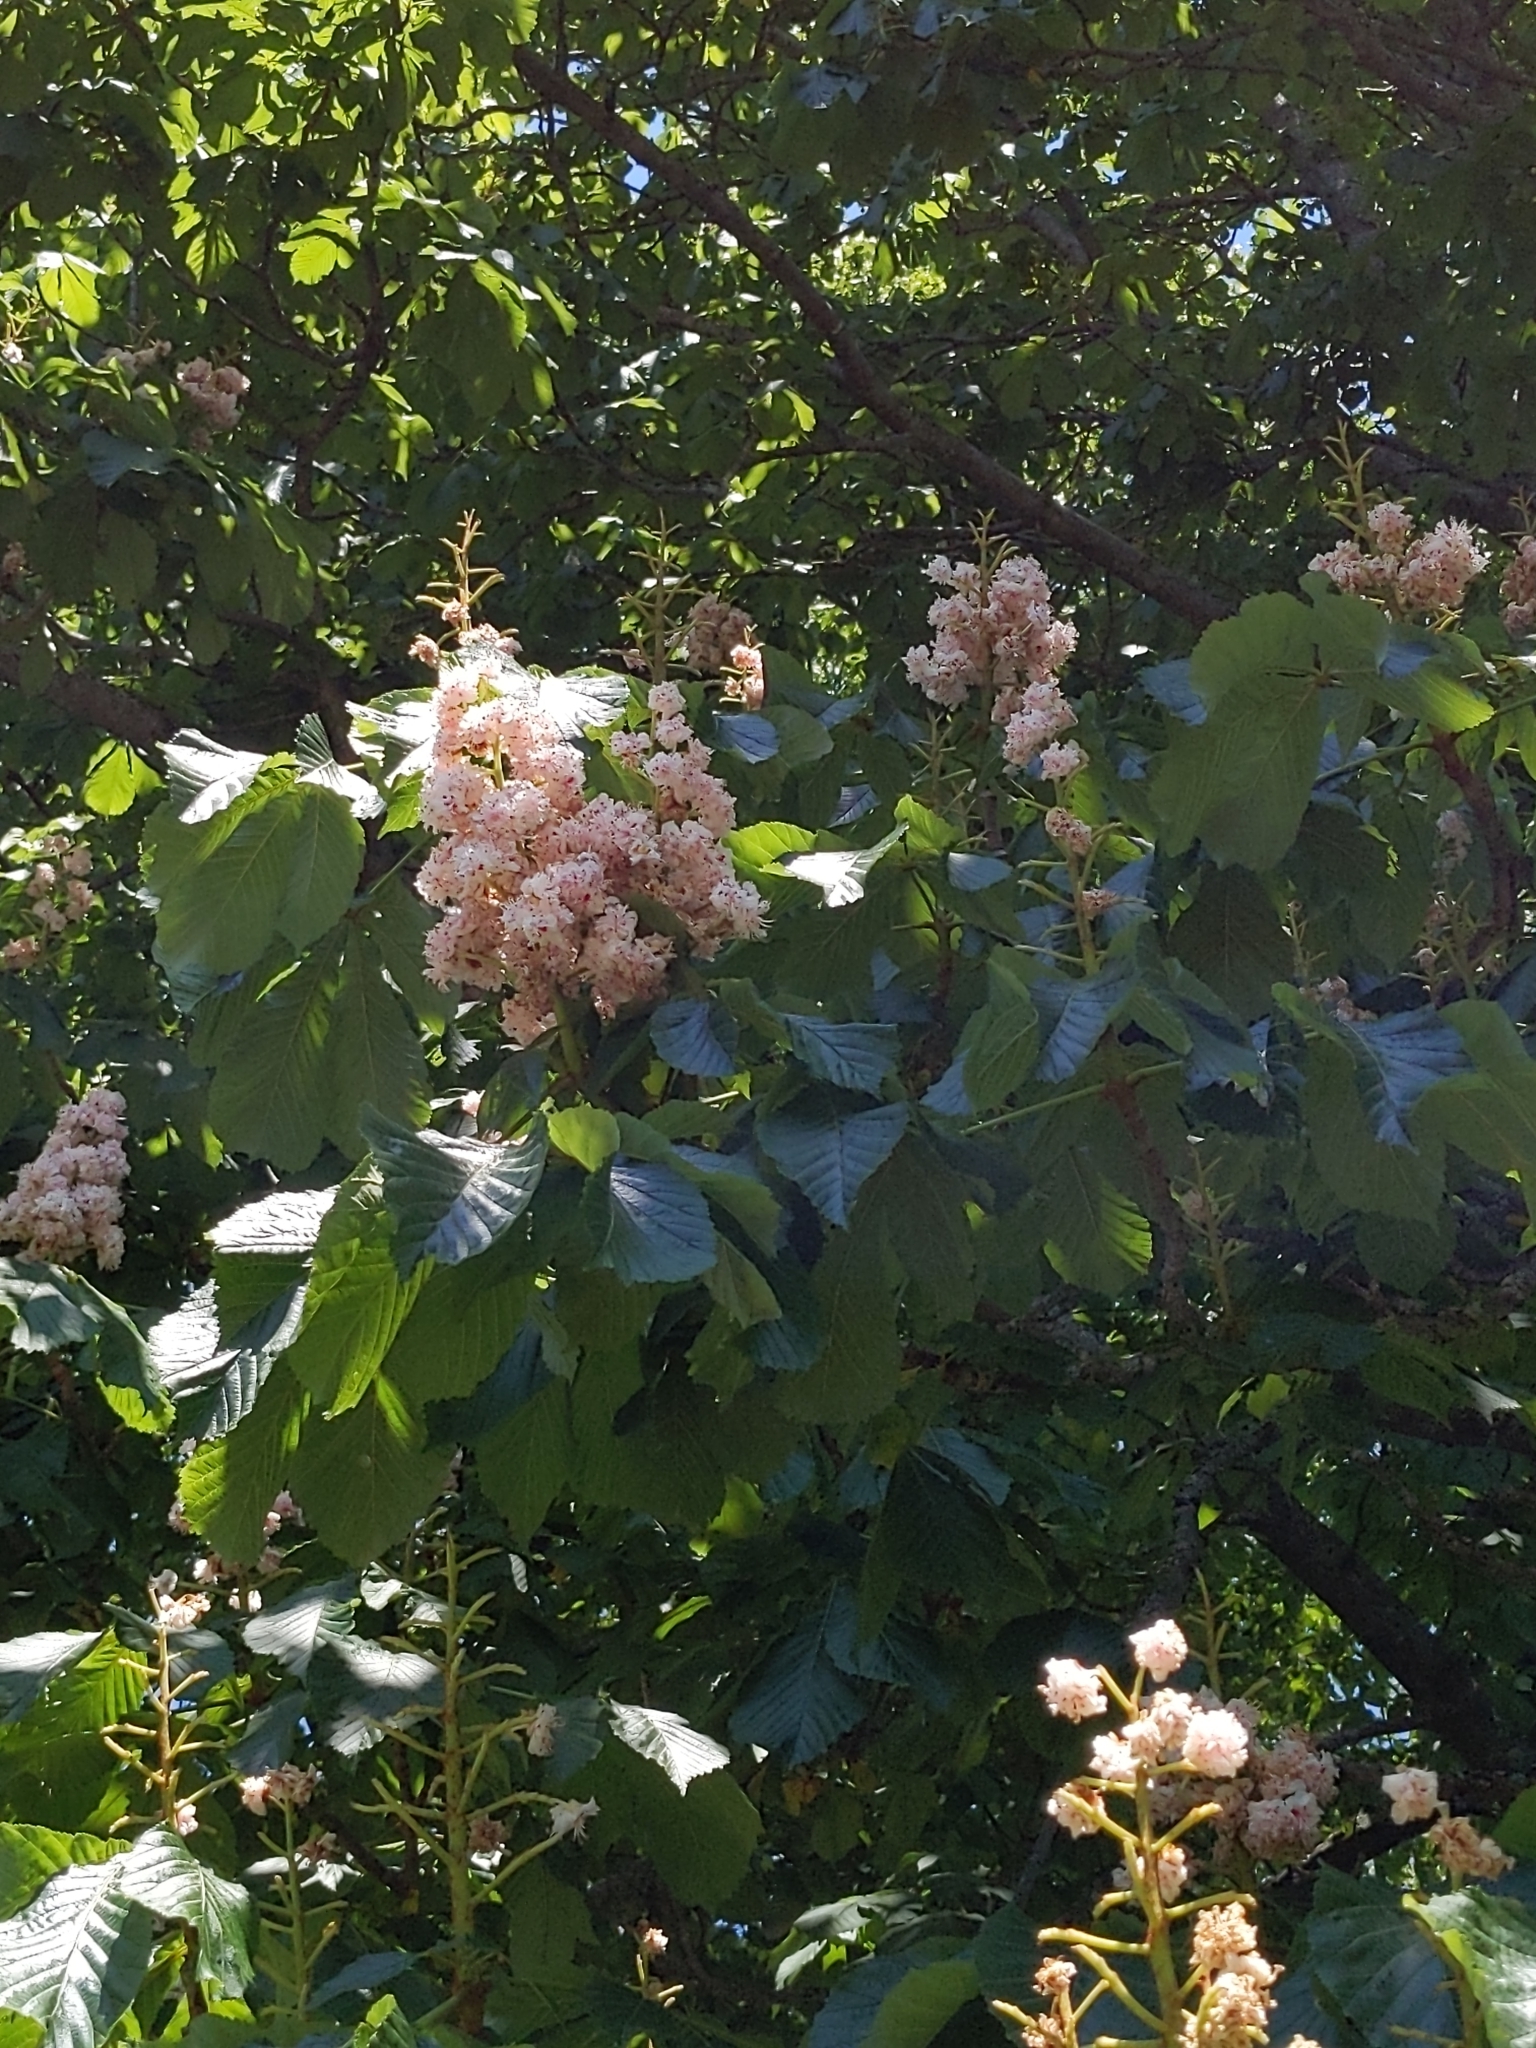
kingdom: Plantae
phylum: Tracheophyta
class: Magnoliopsida
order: Sapindales
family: Sapindaceae
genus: Aesculus
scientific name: Aesculus hippocastanum
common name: Horse-chestnut
